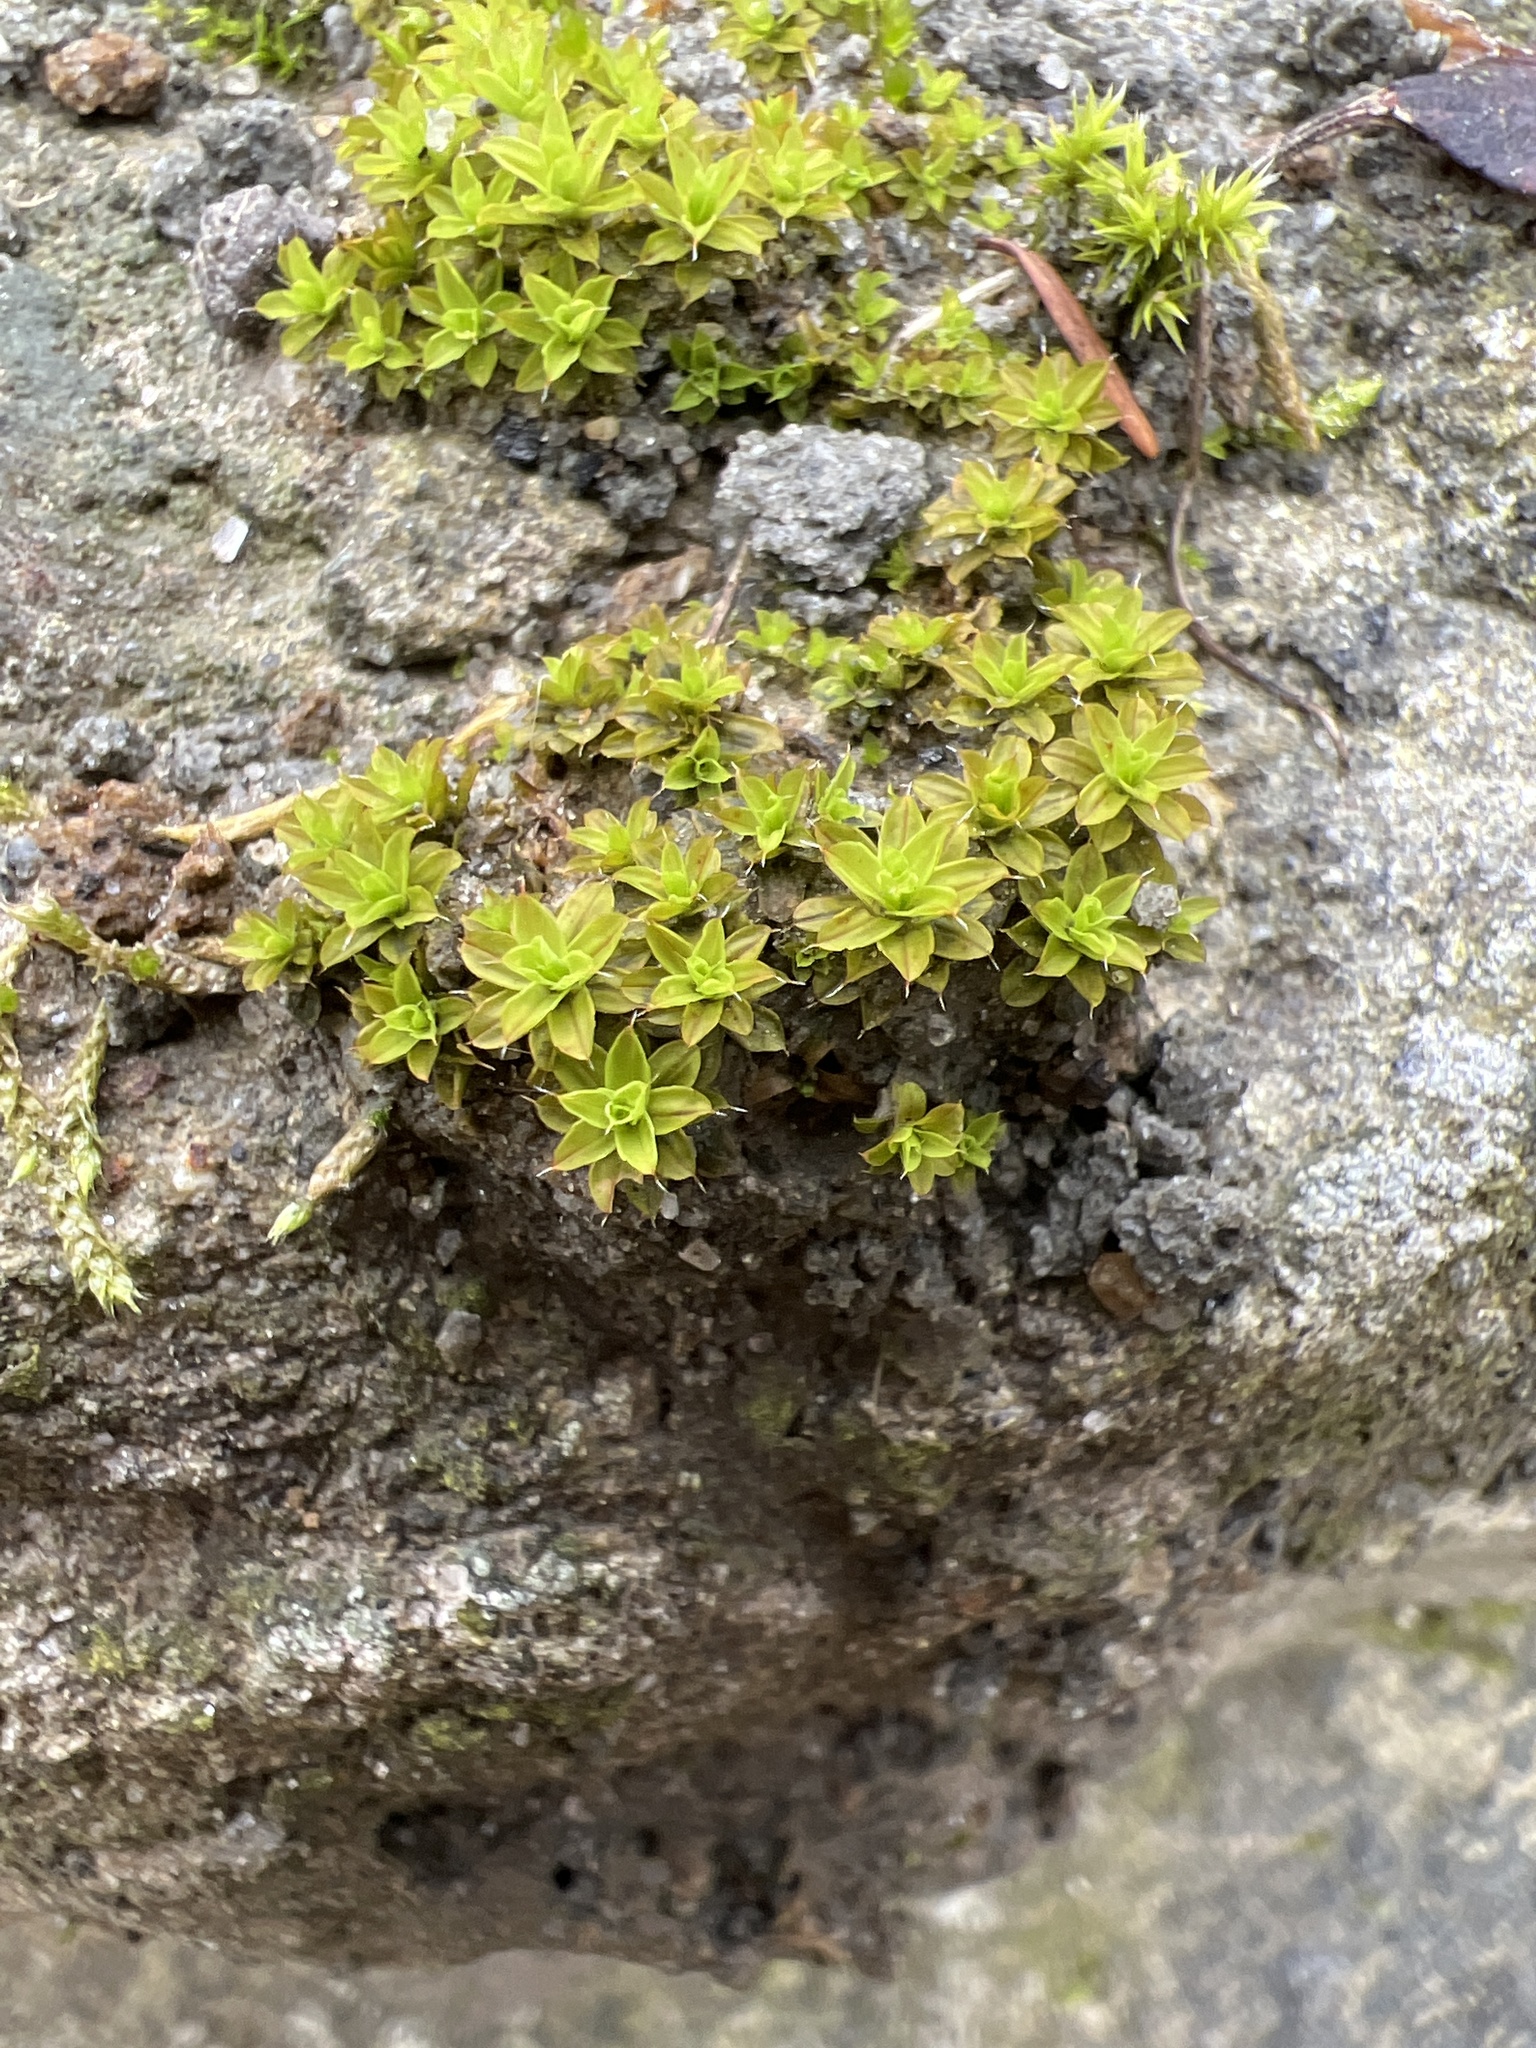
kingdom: Plantae
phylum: Bryophyta
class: Bryopsida
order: Pottiales
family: Pottiaceae
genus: Syntrichia
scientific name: Syntrichia ruralis
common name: Sidewalk screw moss
